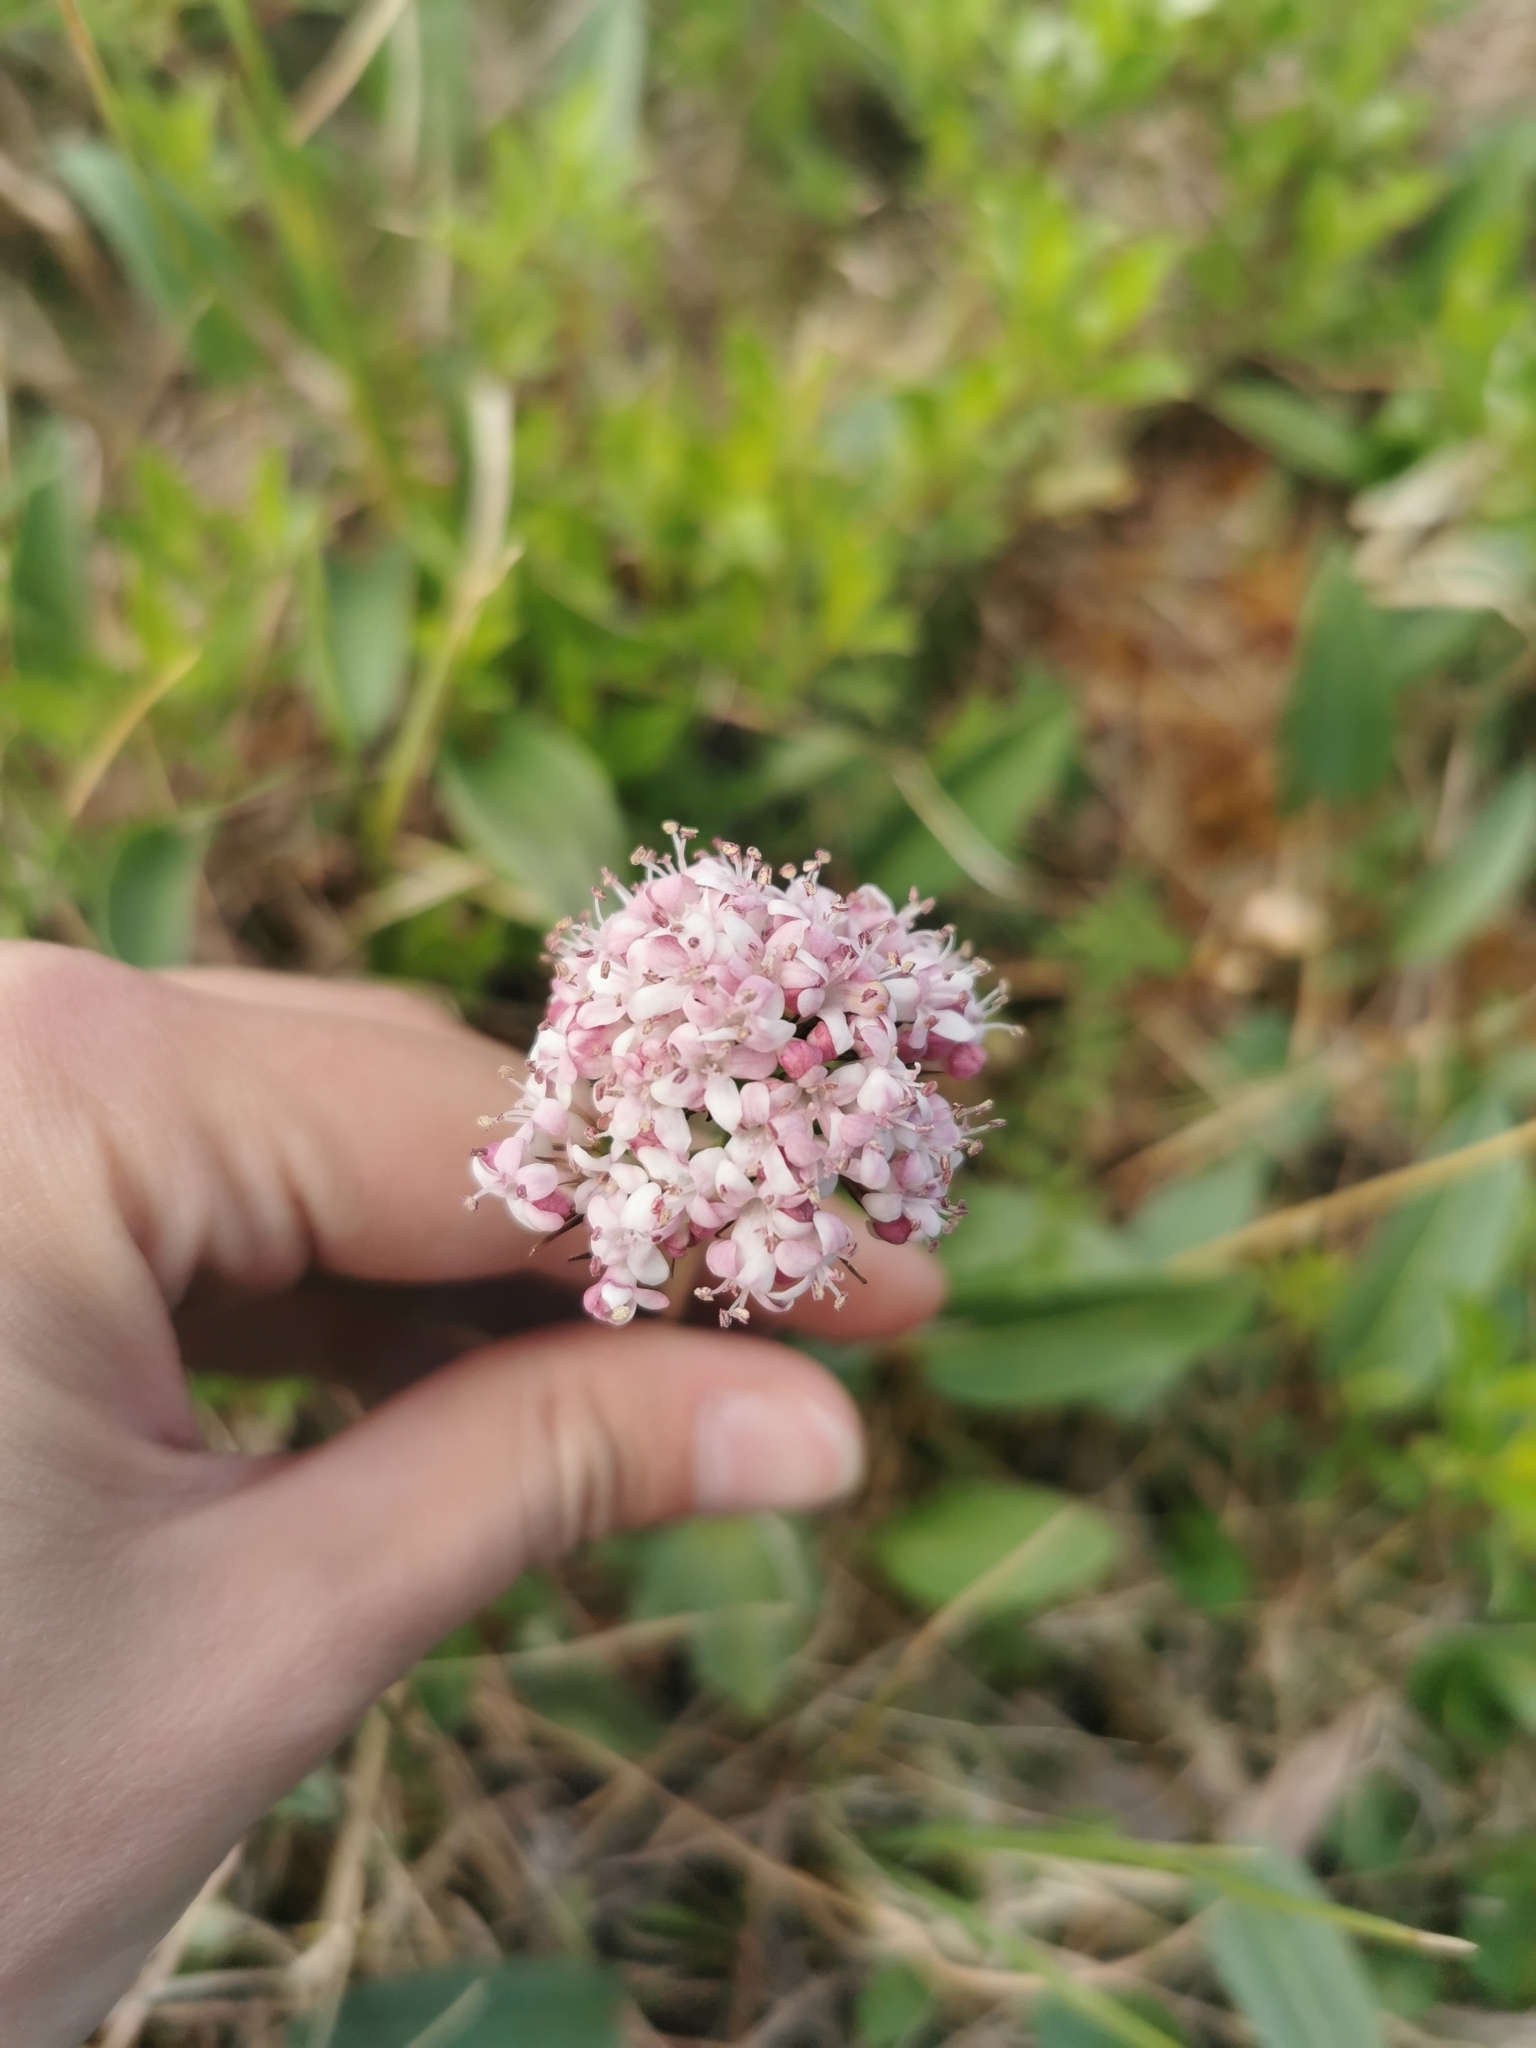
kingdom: Plantae
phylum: Tracheophyta
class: Magnoliopsida
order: Dipsacales
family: Caprifoliaceae
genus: Valeriana
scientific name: Valeriana capitata
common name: Capitate valerian
